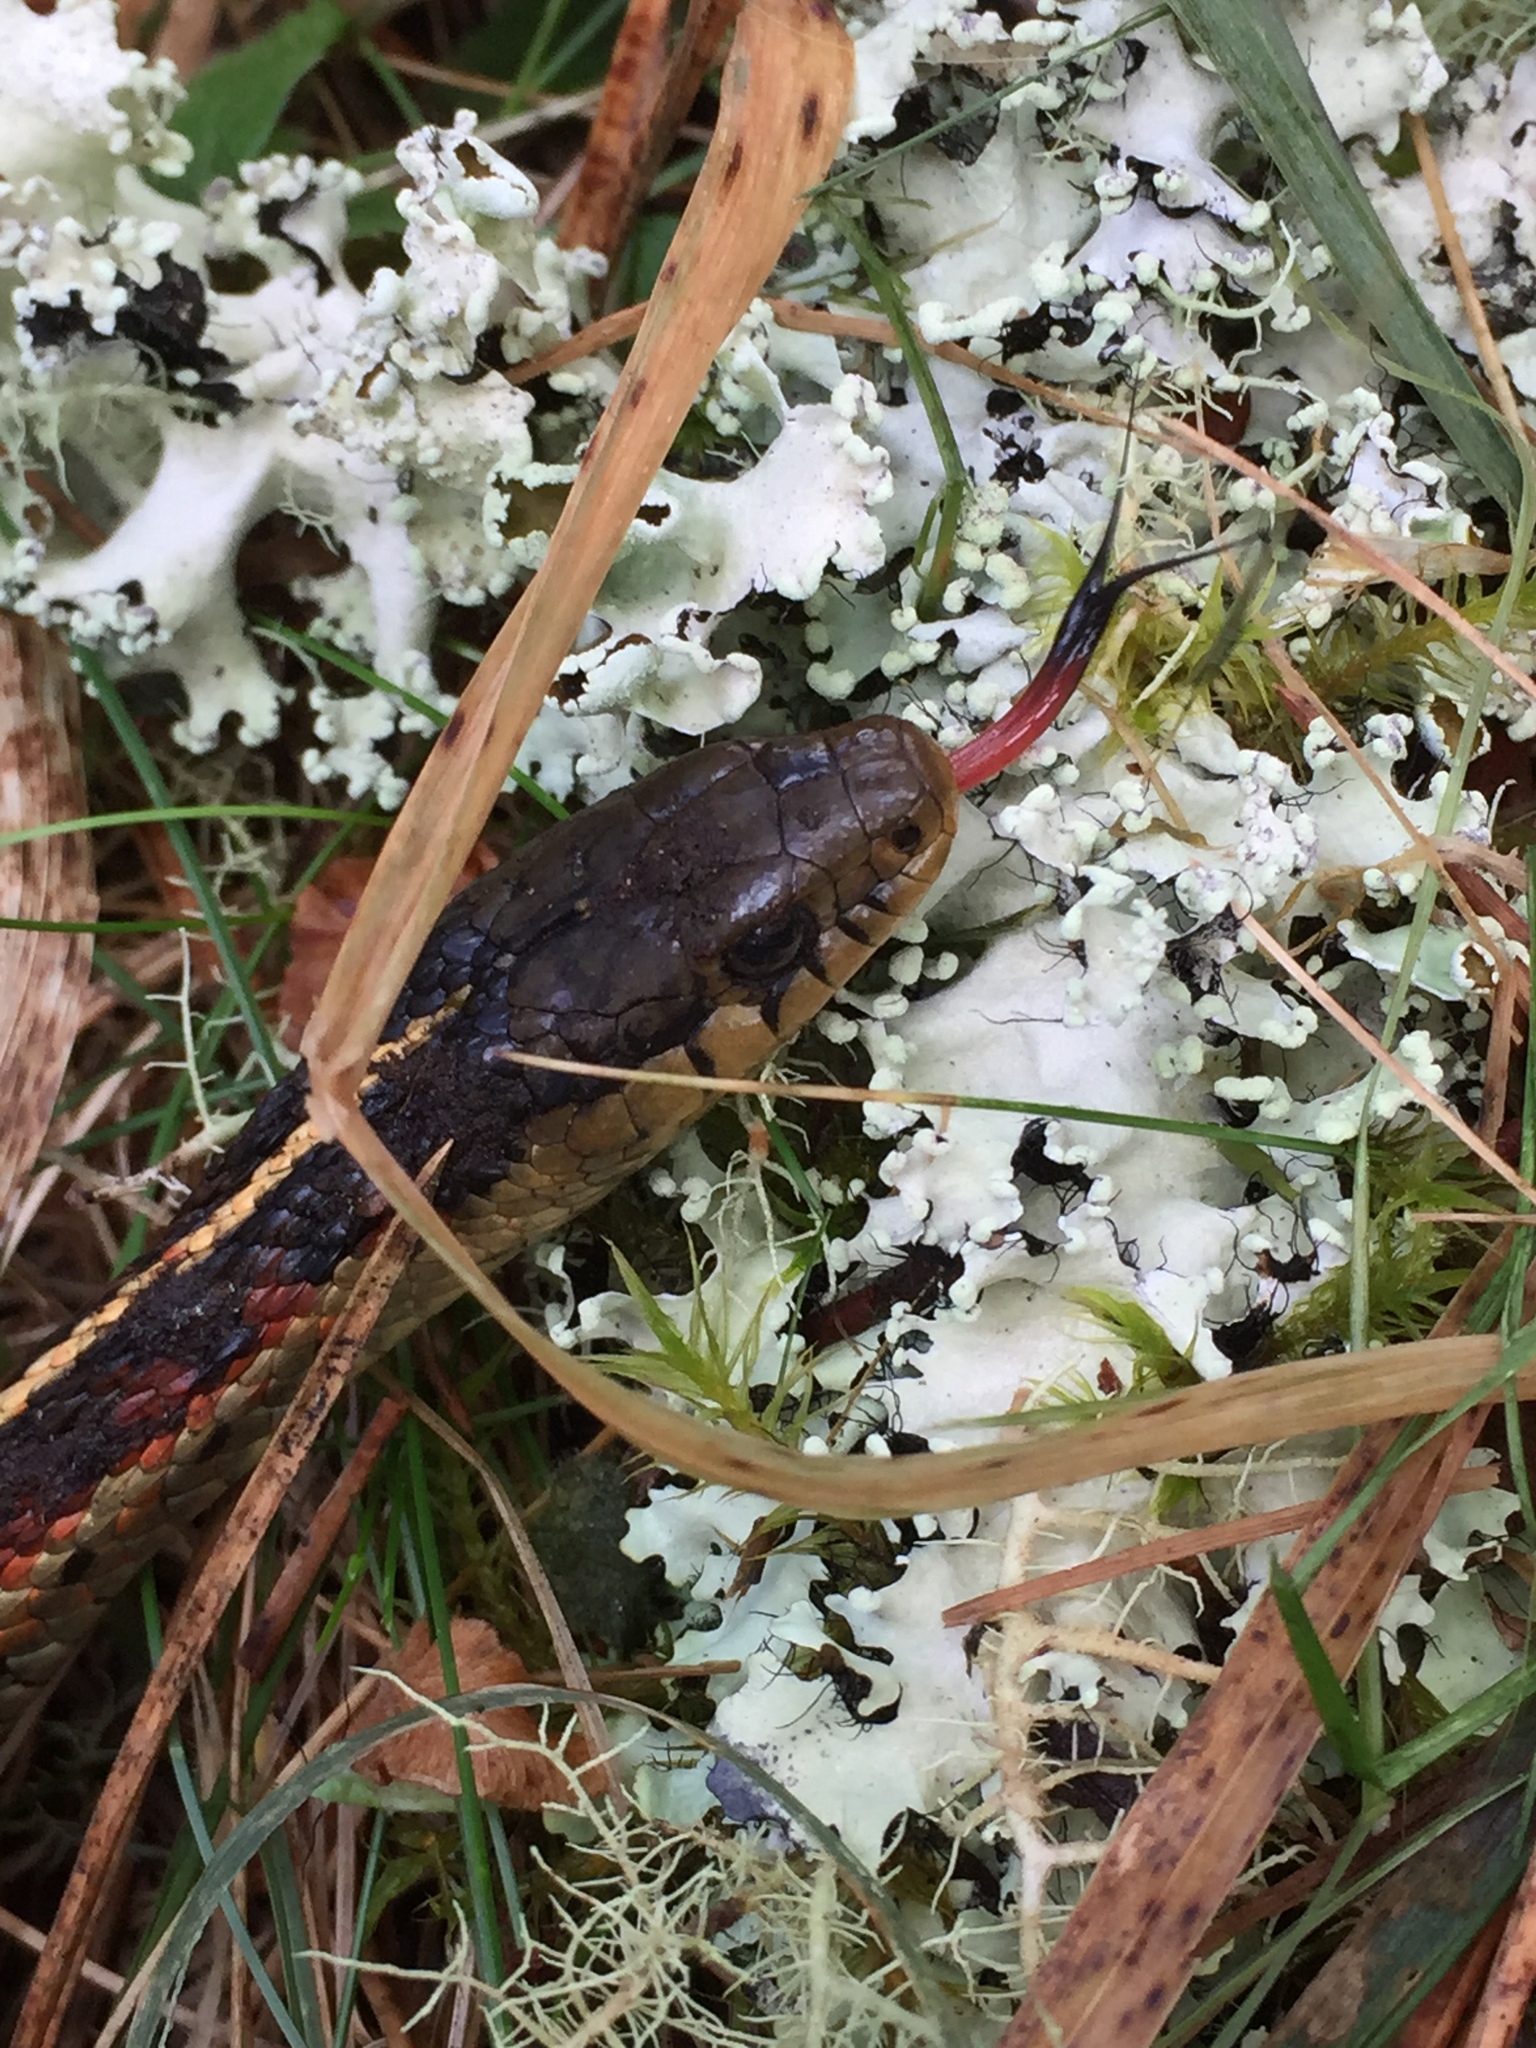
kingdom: Animalia
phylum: Chordata
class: Squamata
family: Colubridae
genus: Thamnophis
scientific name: Thamnophis elegans
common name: Western terrestrial garter snake
